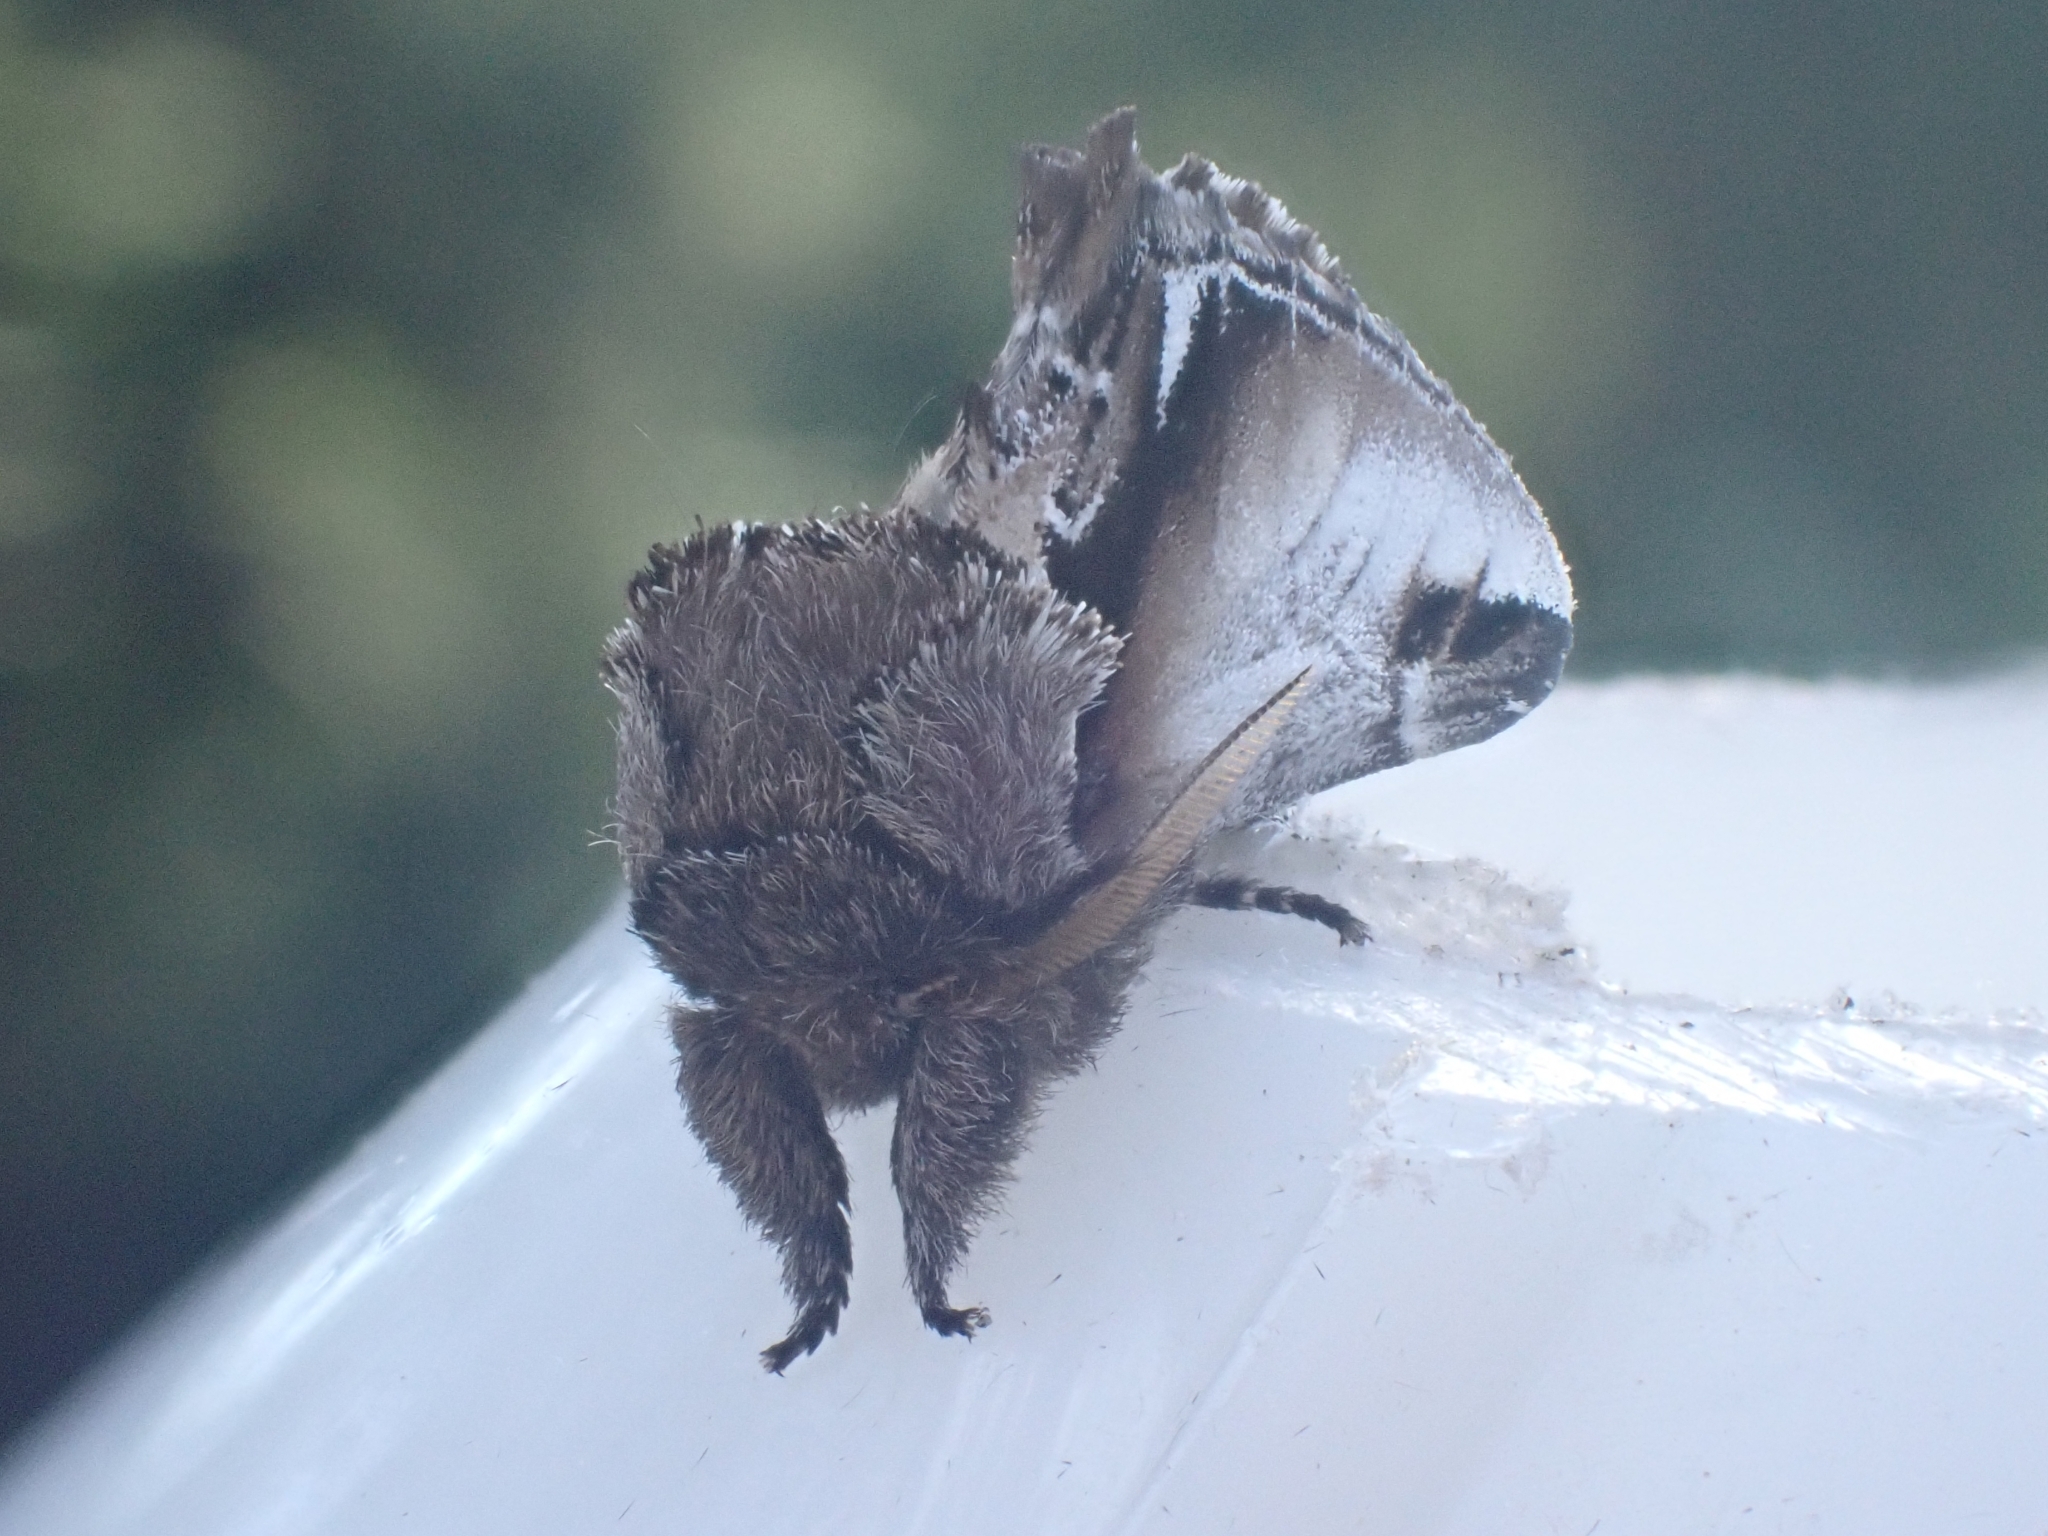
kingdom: Animalia
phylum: Arthropoda
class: Insecta
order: Lepidoptera
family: Notodontidae
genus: Pheosia
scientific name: Pheosia gnoma
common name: Lesser swallow prominent
